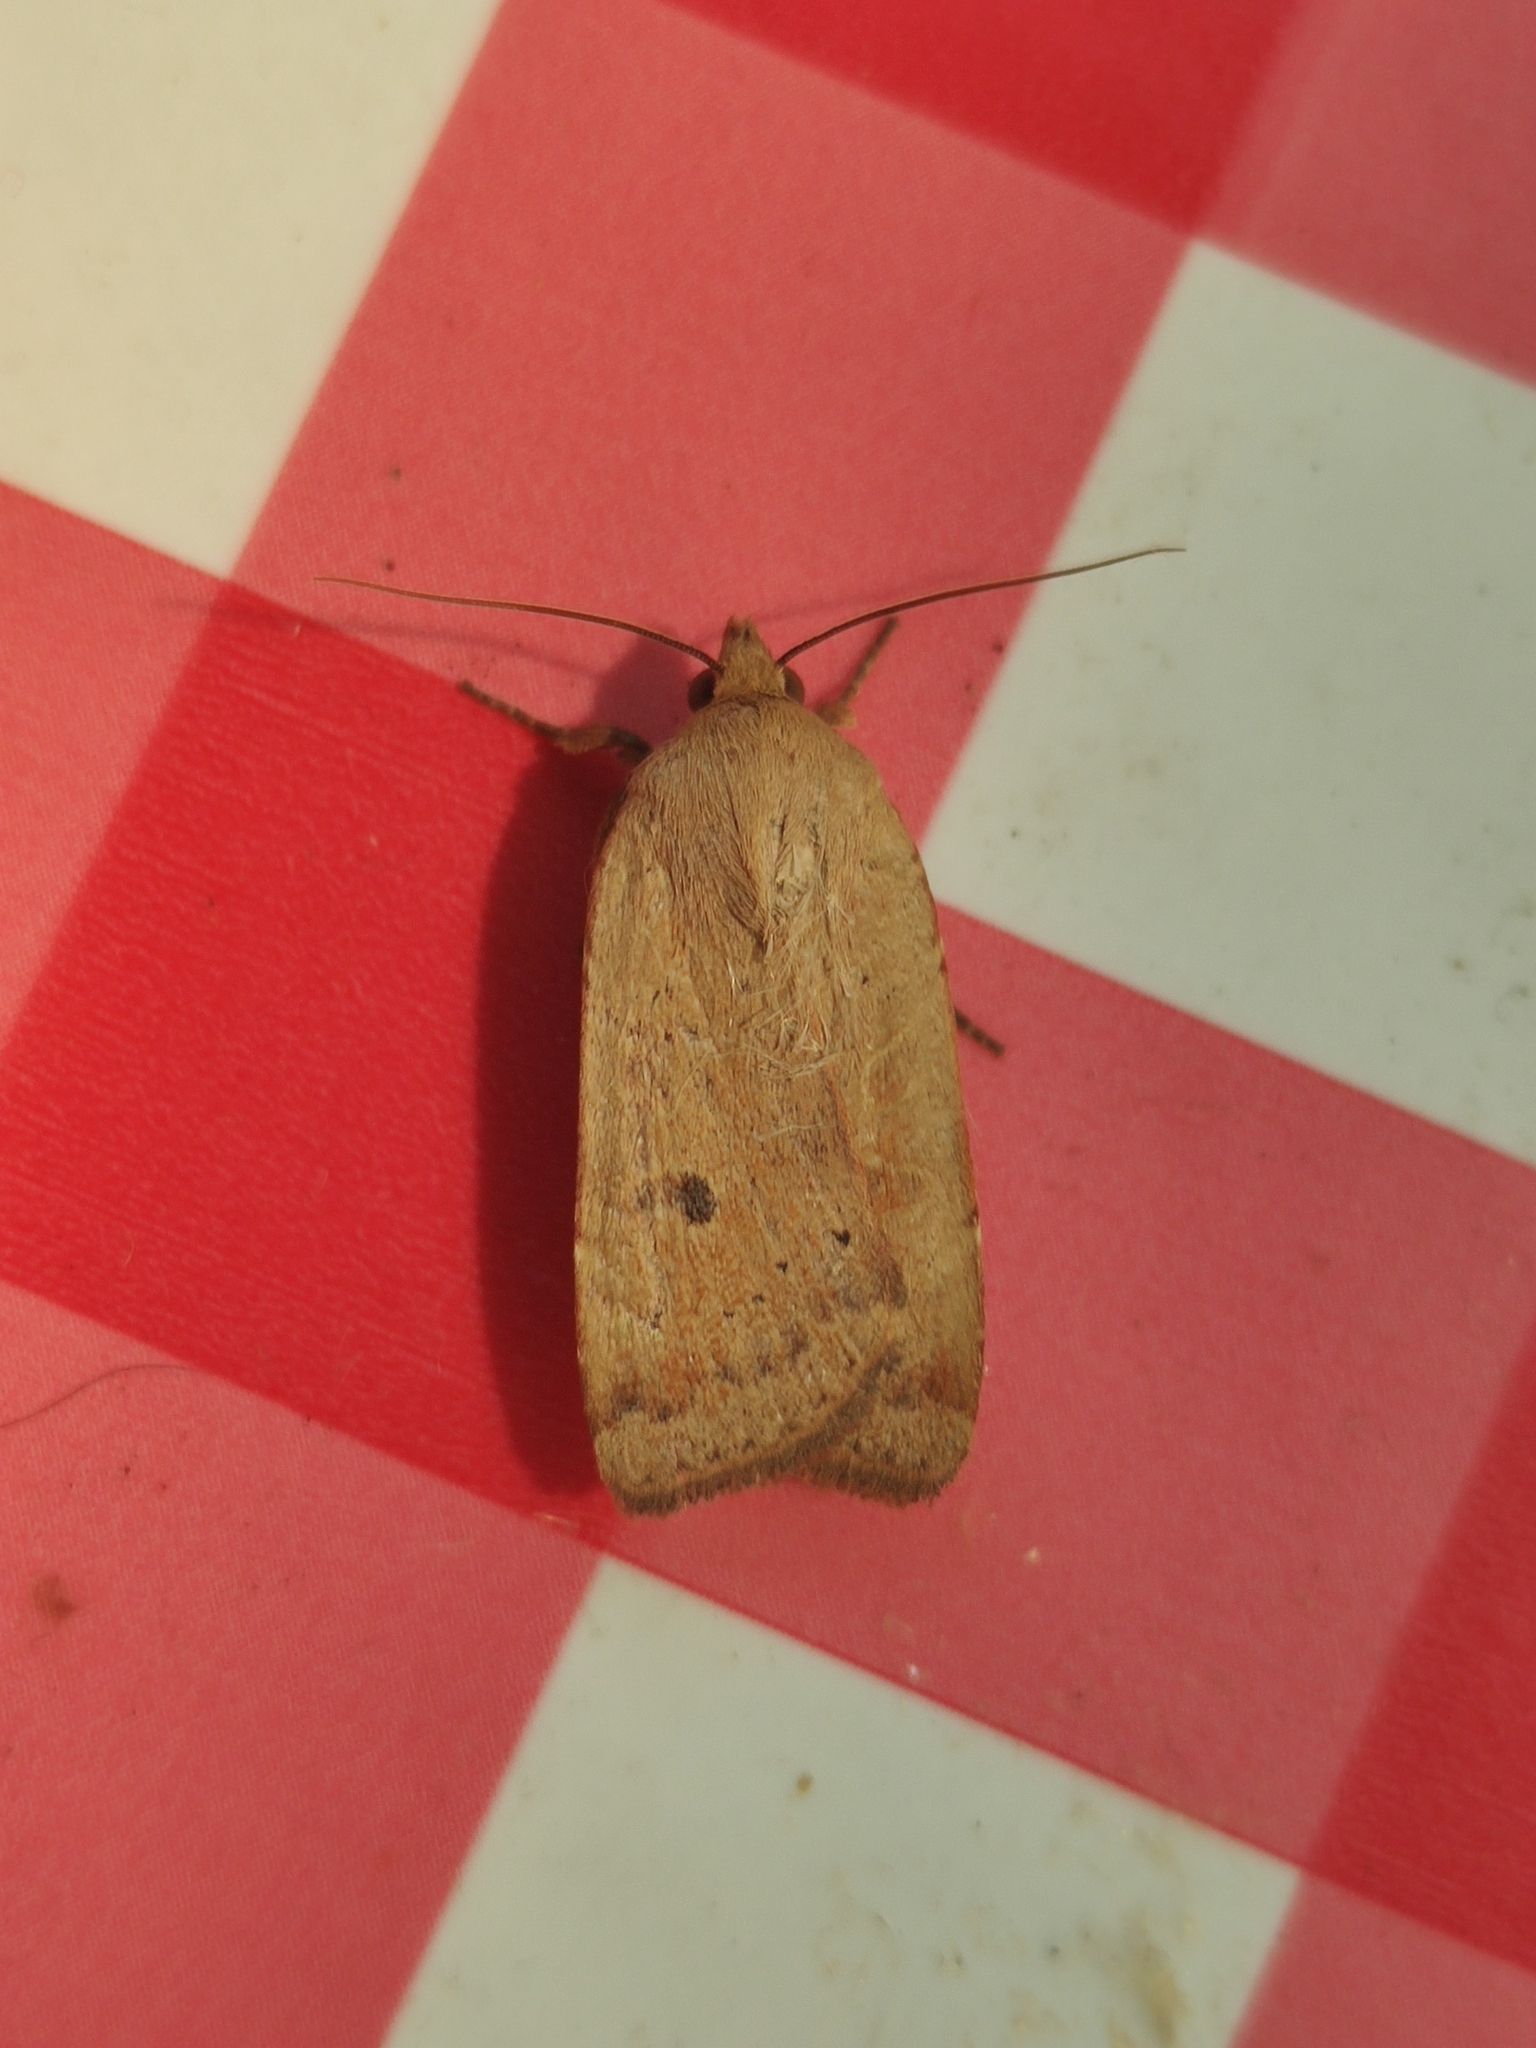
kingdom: Animalia
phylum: Arthropoda
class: Insecta
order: Lepidoptera
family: Noctuidae
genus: Noctua
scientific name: Noctua comes
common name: Lesser yellow underwing
